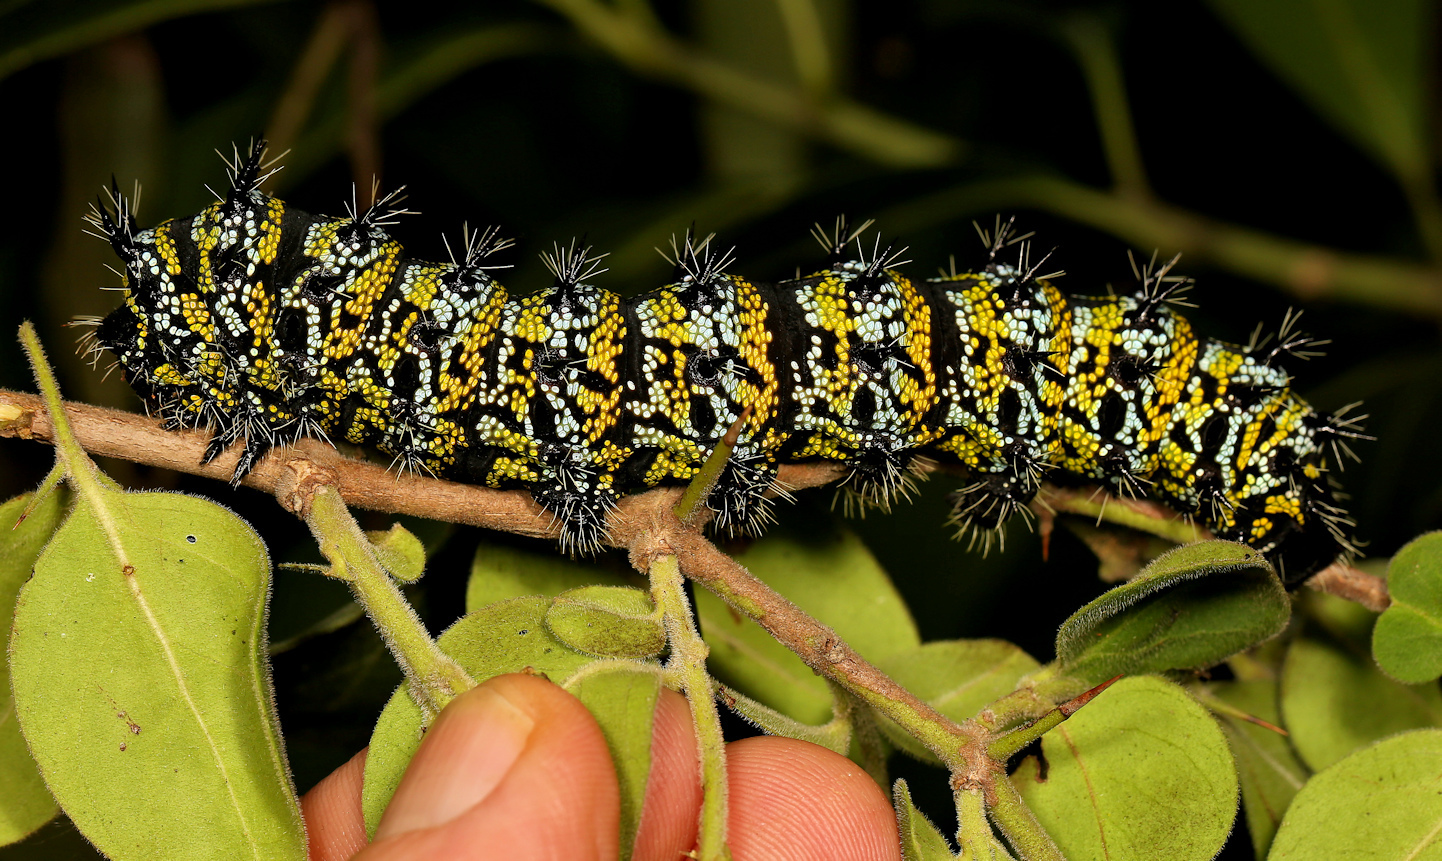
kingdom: Animalia
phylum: Arthropoda
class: Insecta
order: Lepidoptera
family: Saturniidae
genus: Gonimbrasia
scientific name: Gonimbrasia zambesina
